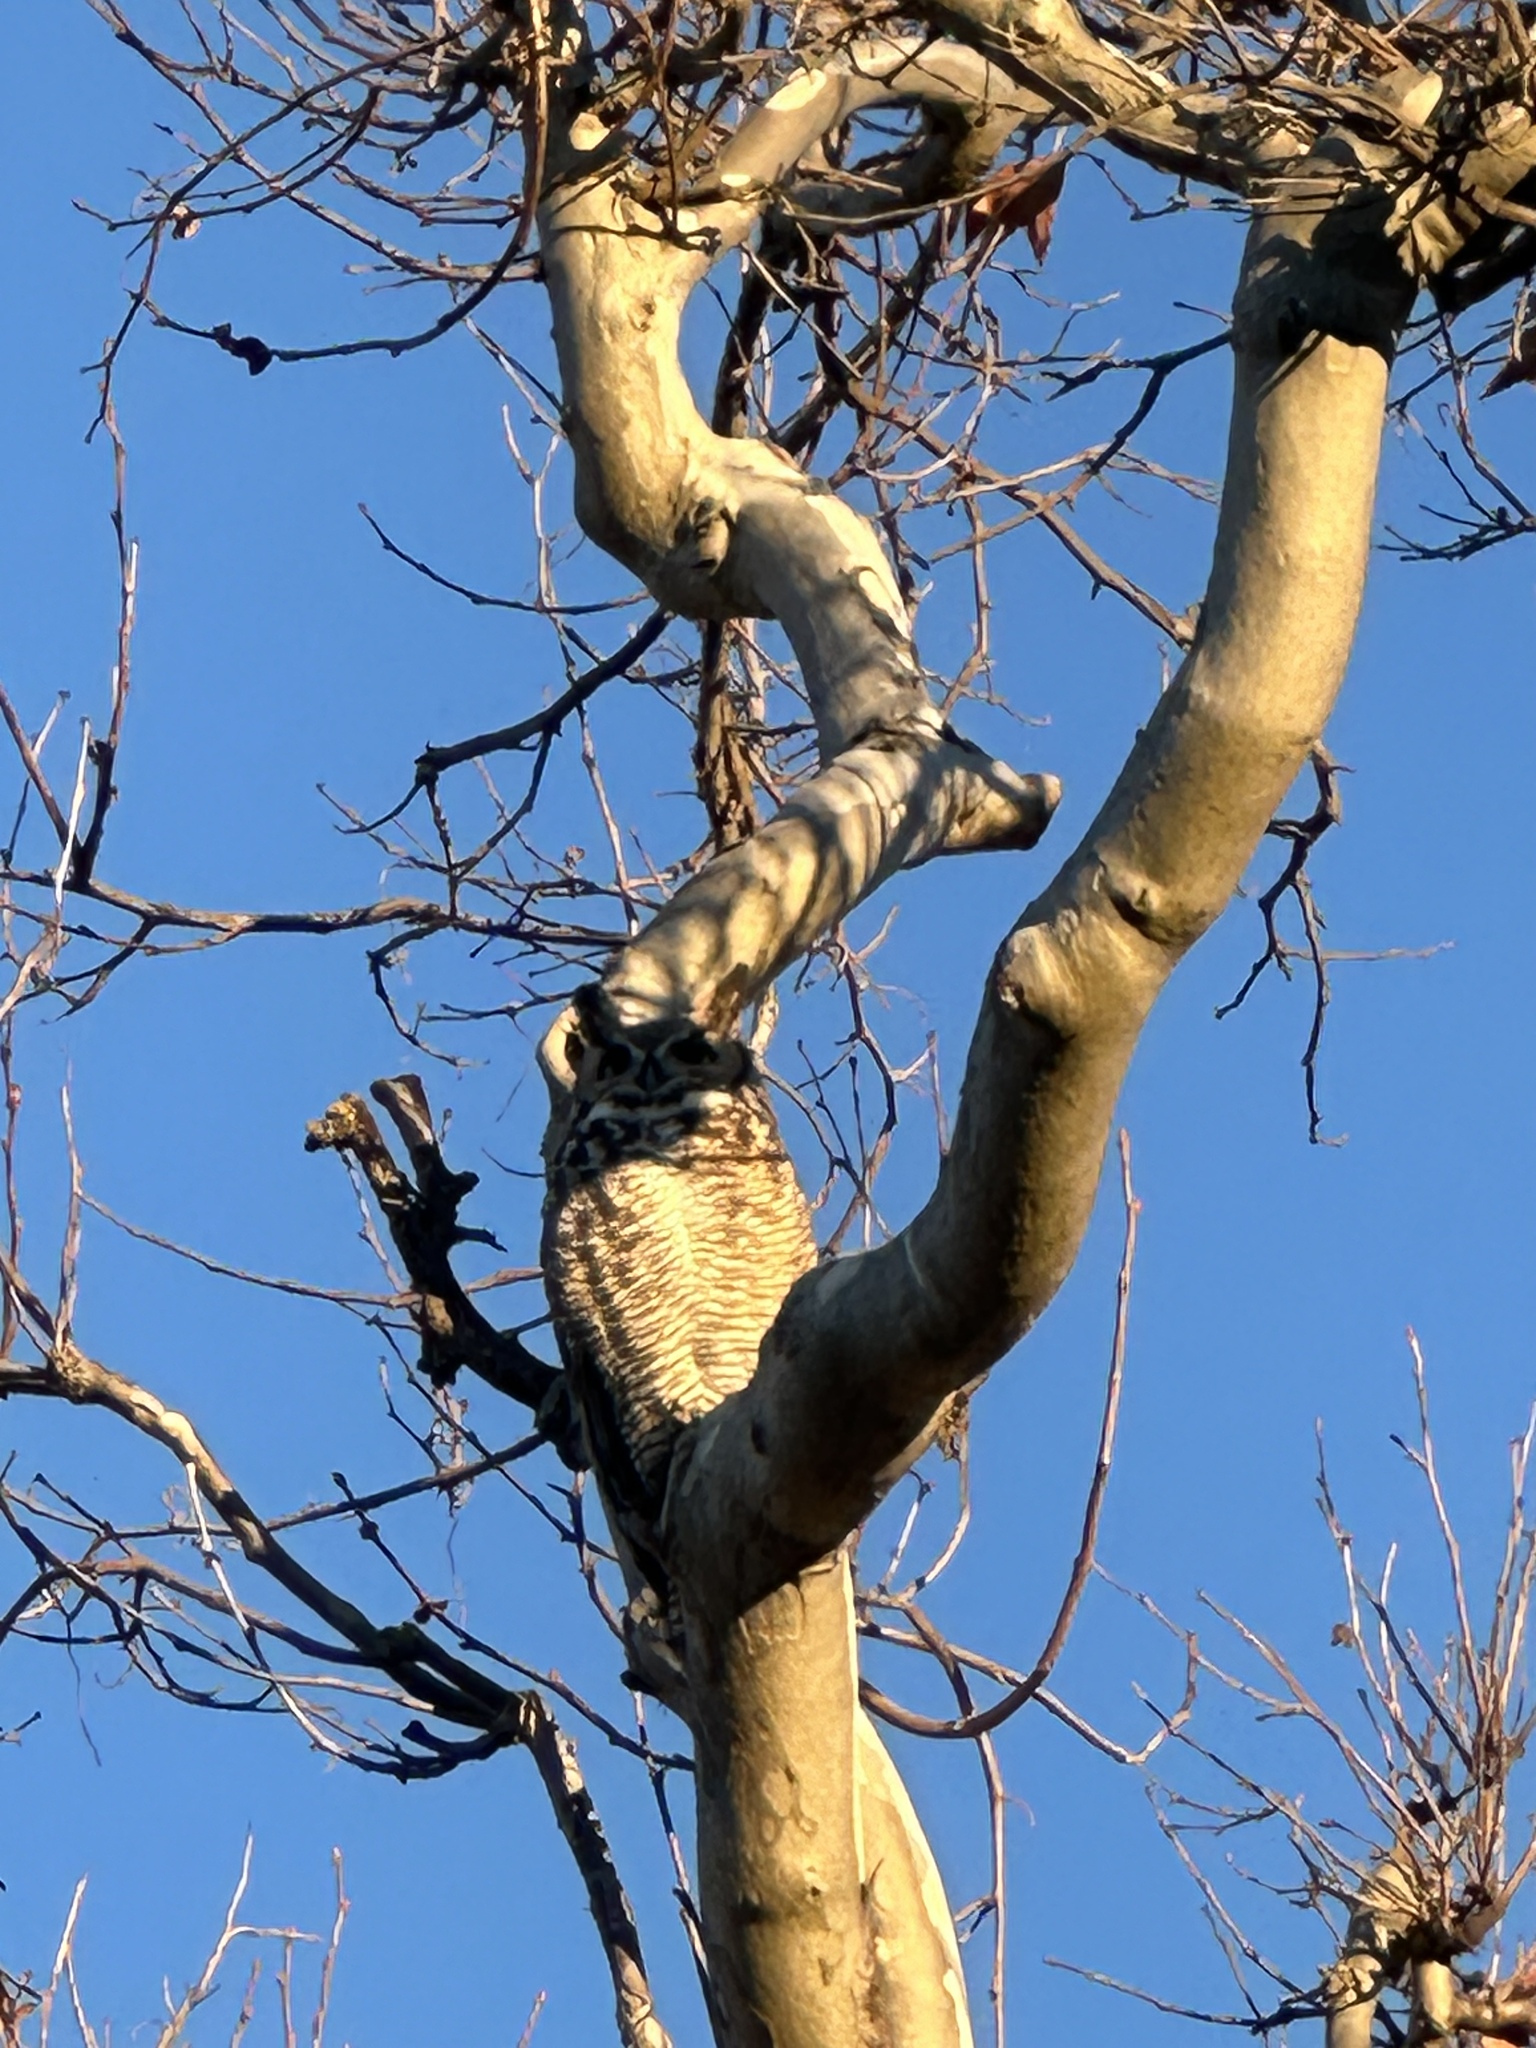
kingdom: Animalia
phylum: Chordata
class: Aves
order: Strigiformes
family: Strigidae
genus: Bubo
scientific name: Bubo virginianus
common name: Great horned owl
